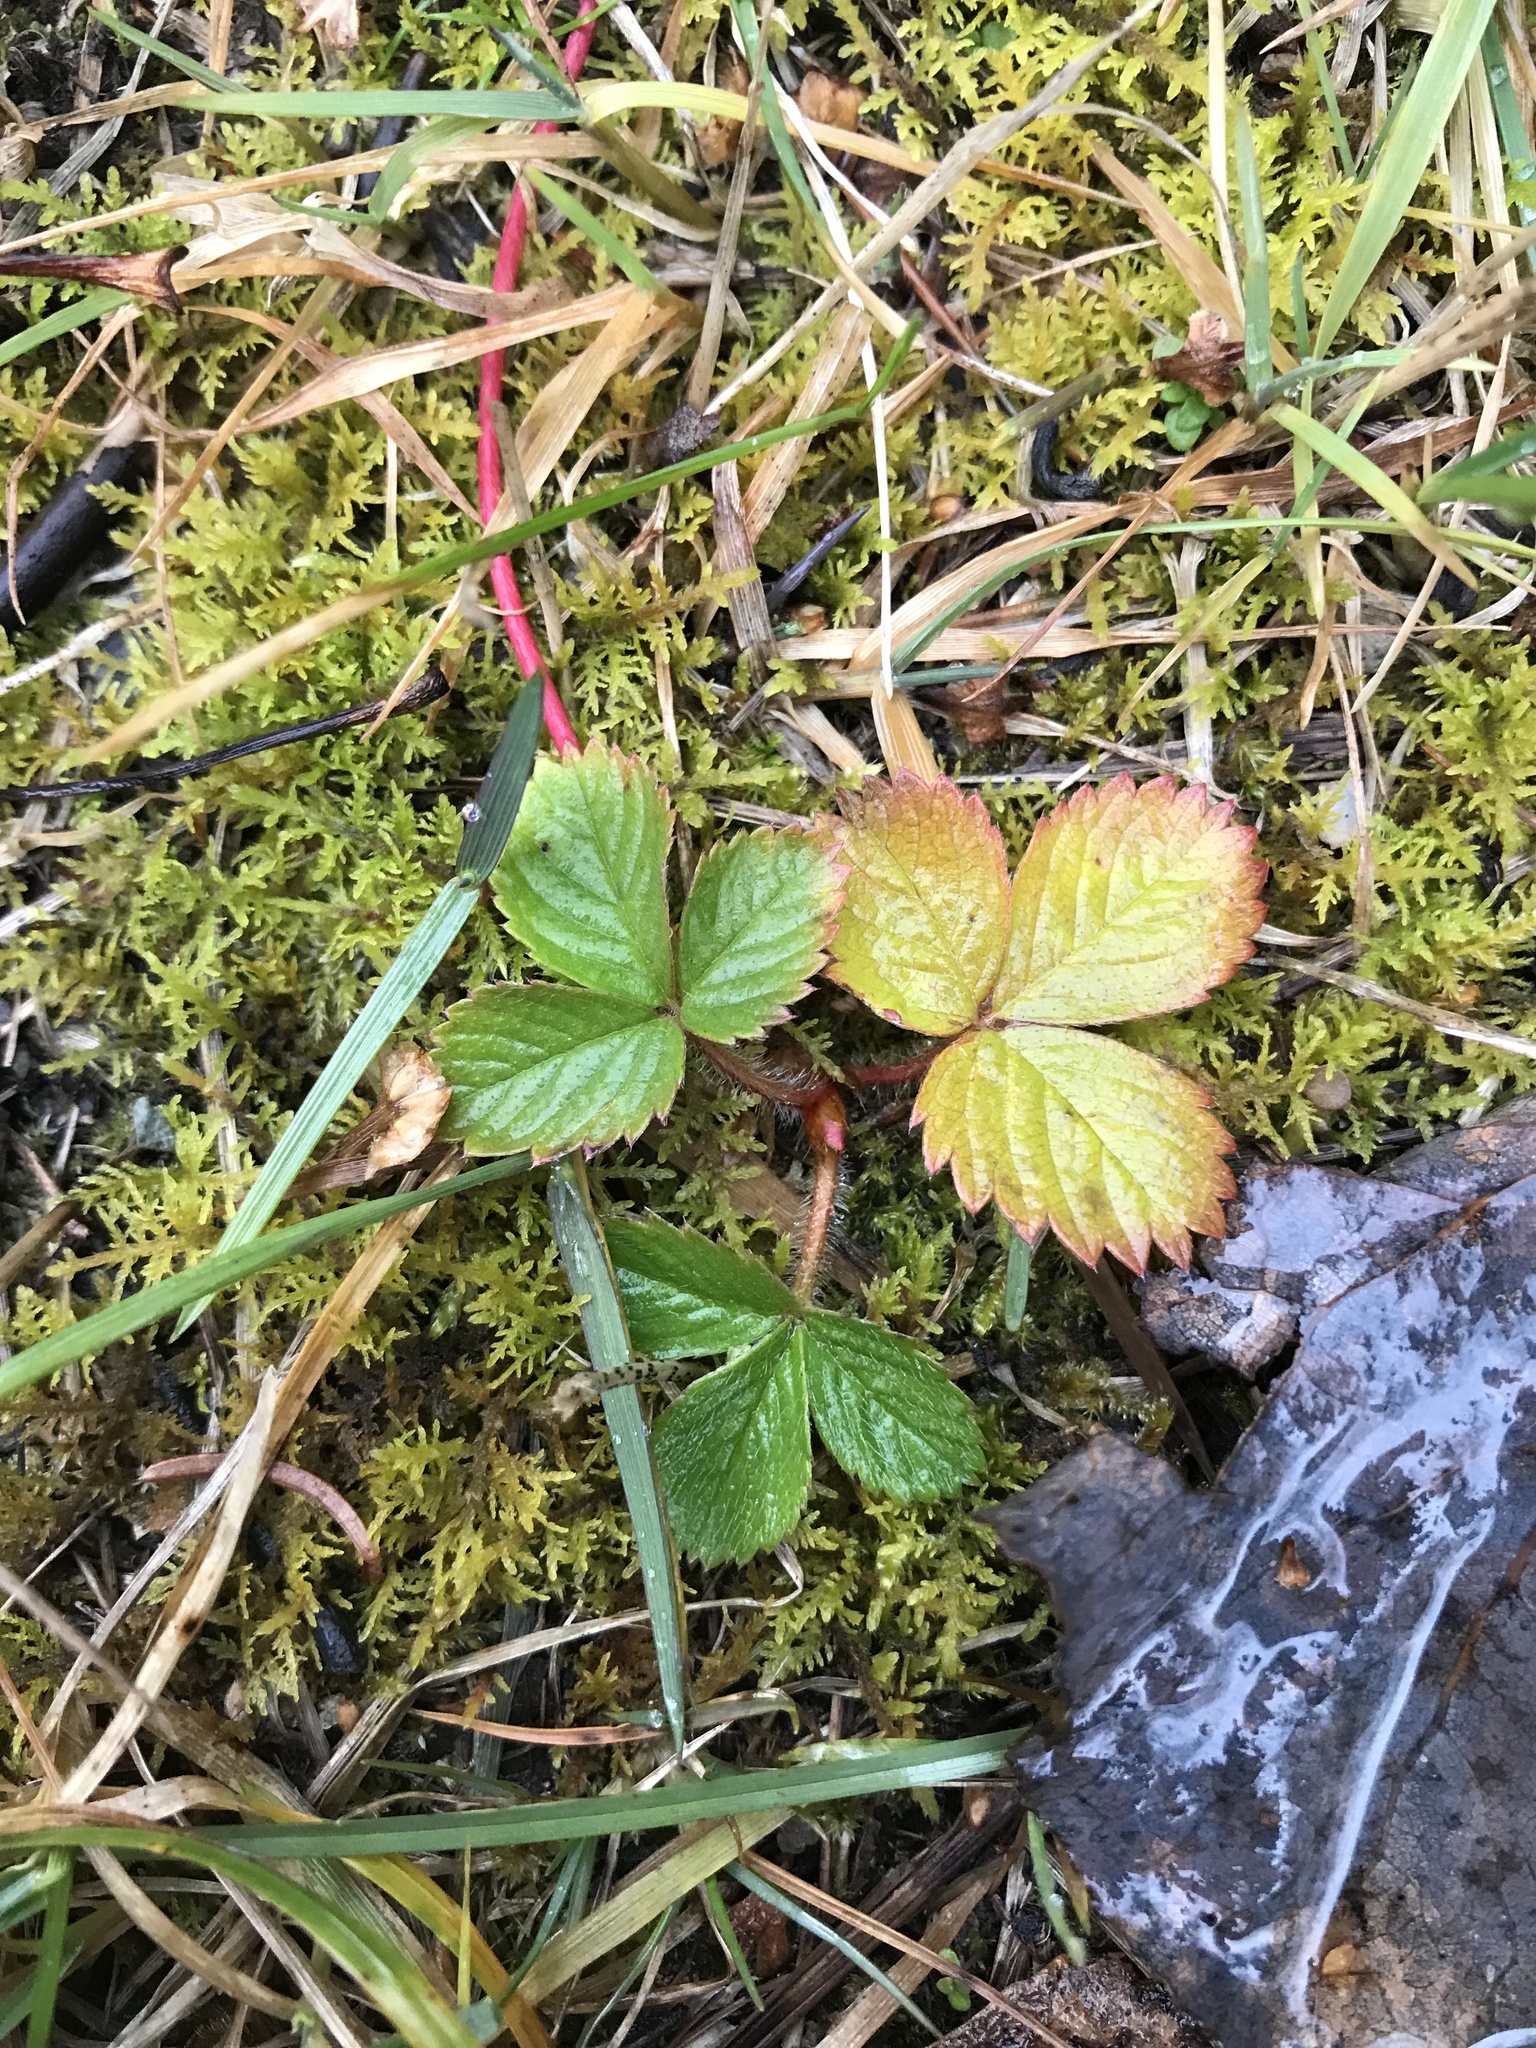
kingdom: Plantae
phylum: Tracheophyta
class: Magnoliopsida
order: Rosales
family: Rosaceae
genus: Fragaria
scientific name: Fragaria virginiana
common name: Thickleaved wild strawberry
